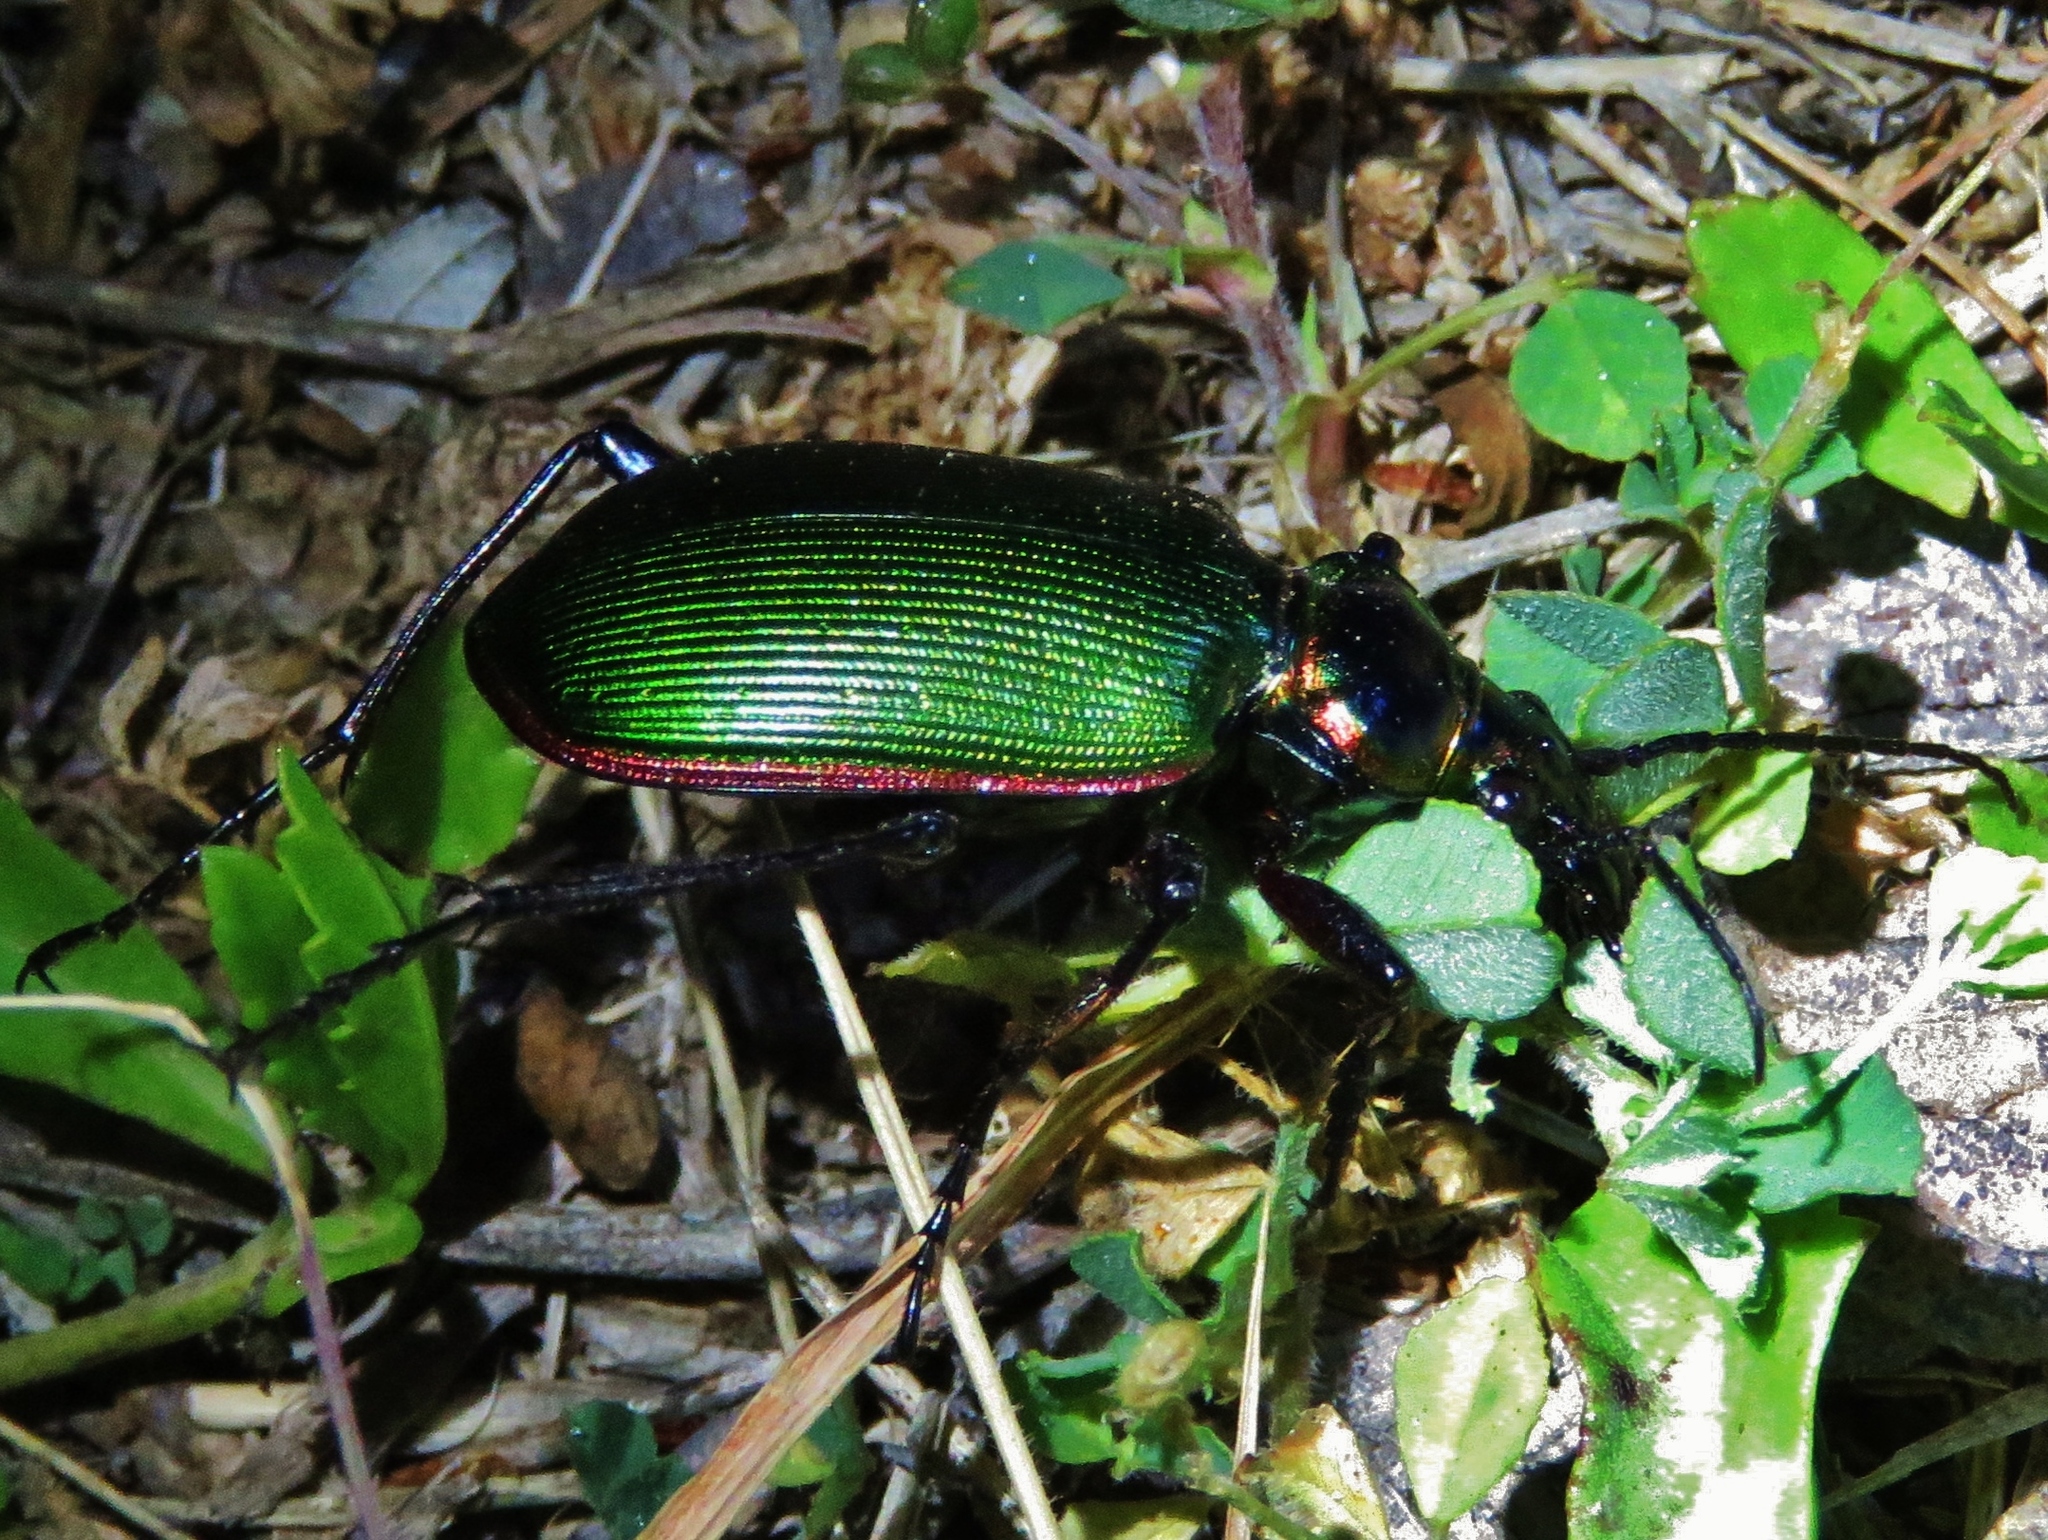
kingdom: Animalia
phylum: Arthropoda
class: Insecta
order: Coleoptera
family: Carabidae
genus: Calosoma
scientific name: Calosoma scrutator
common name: Fiery searcher beetle
